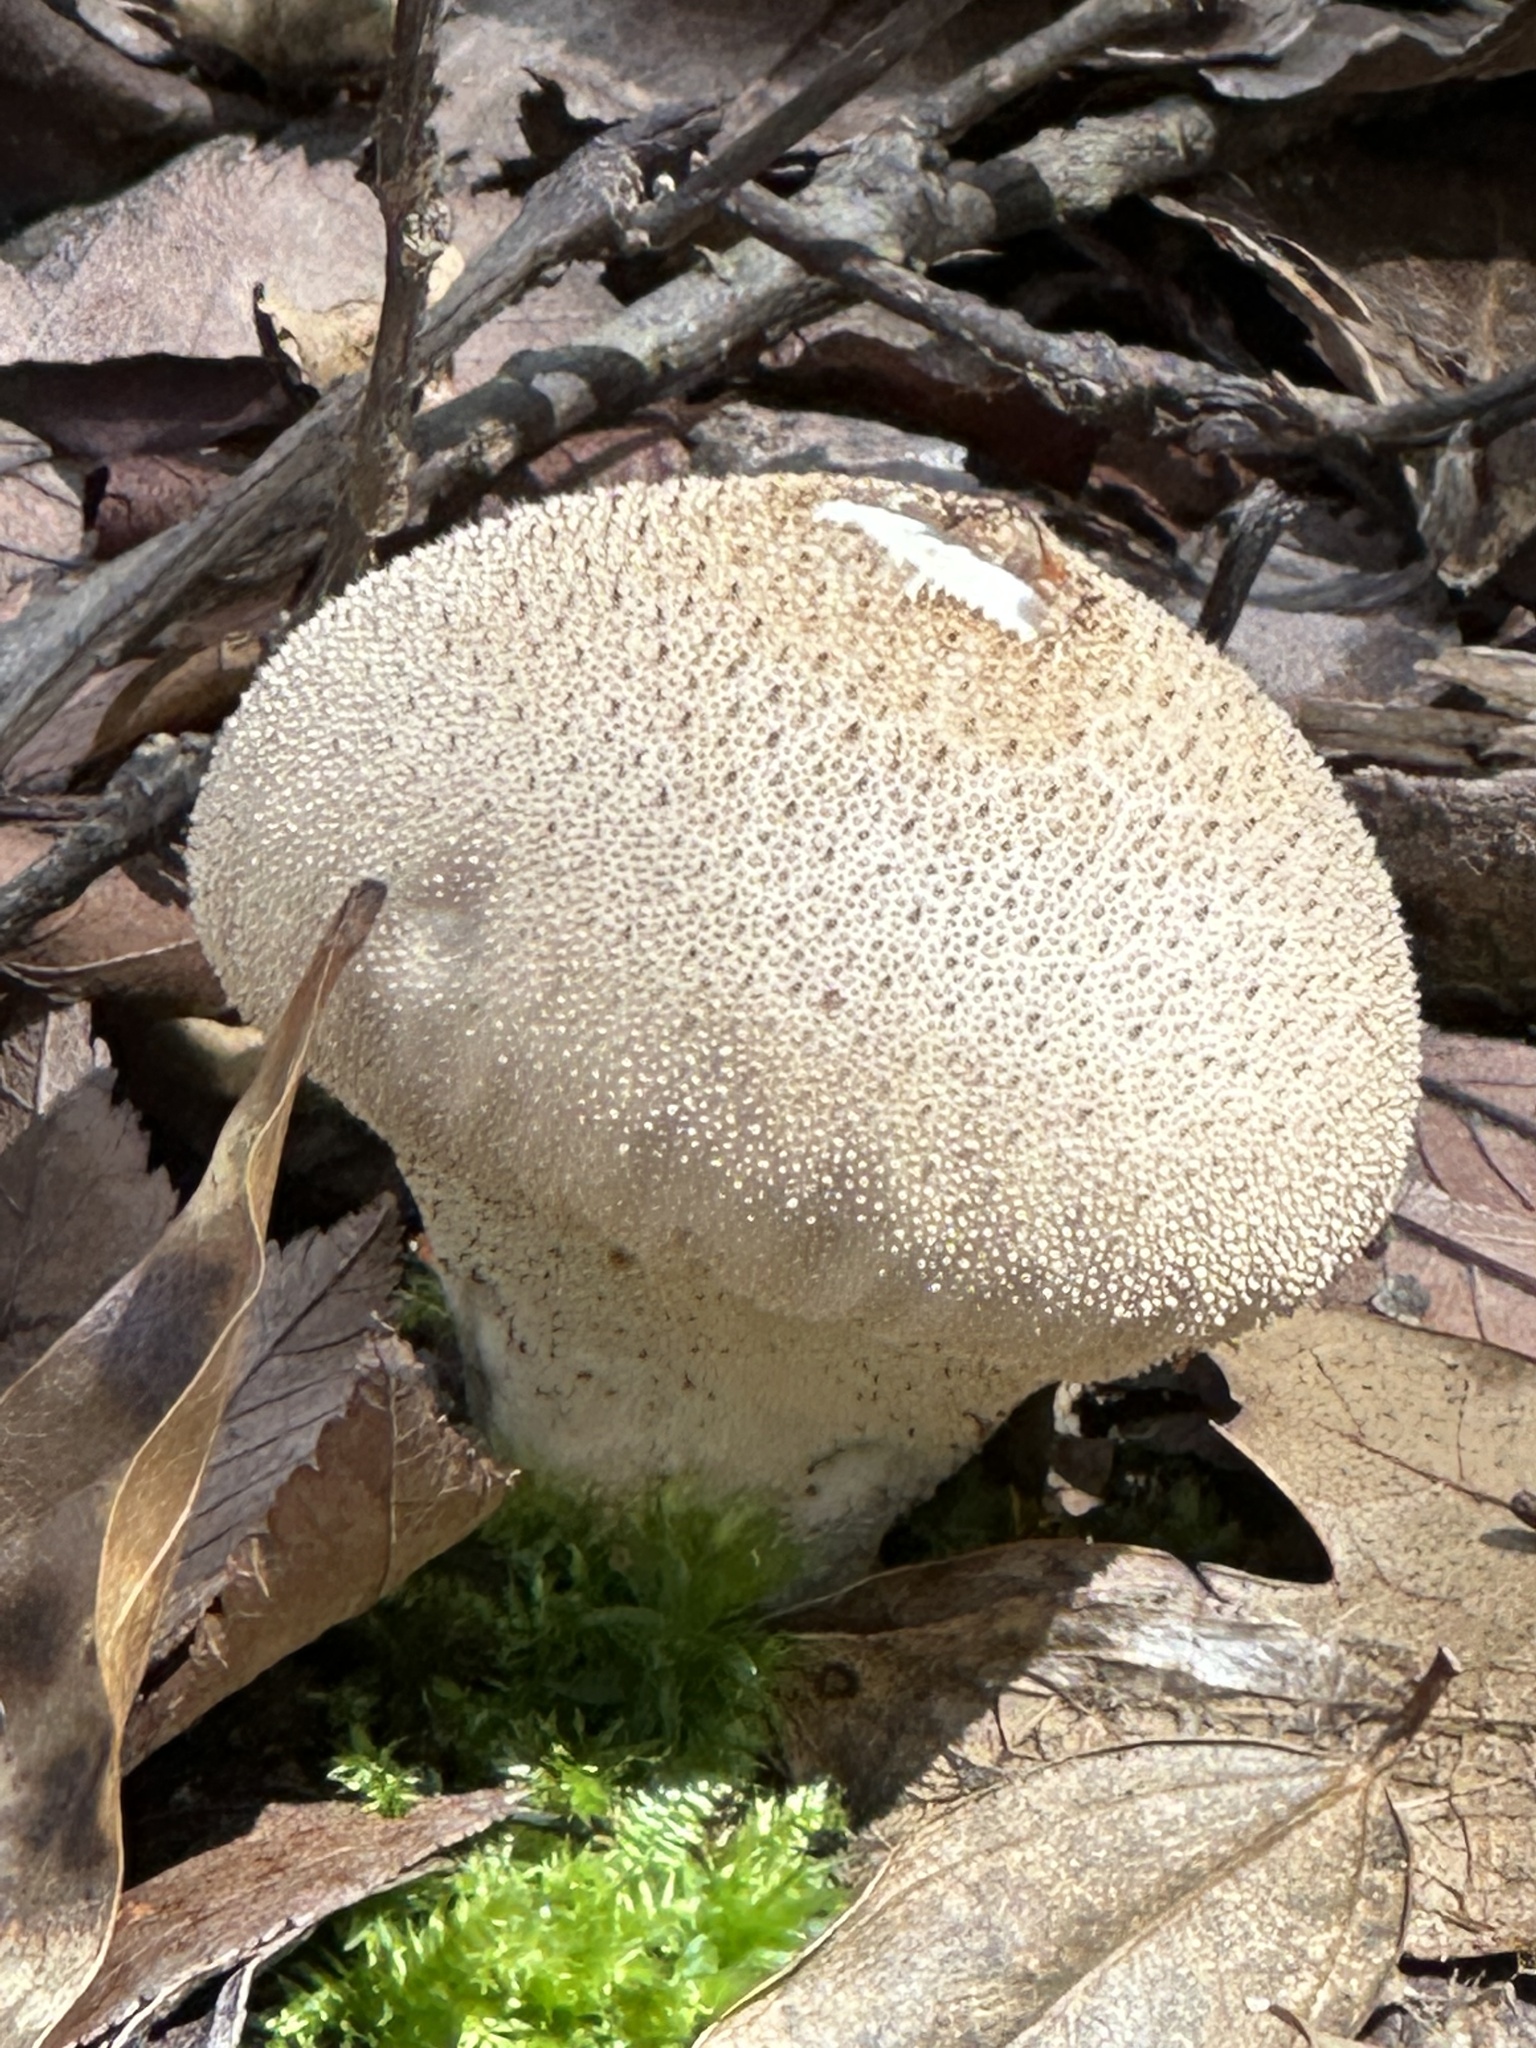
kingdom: Fungi
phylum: Basidiomycota
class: Agaricomycetes
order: Agaricales
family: Lycoperdaceae
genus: Lycoperdon
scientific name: Lycoperdon perlatum
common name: Common puffball
